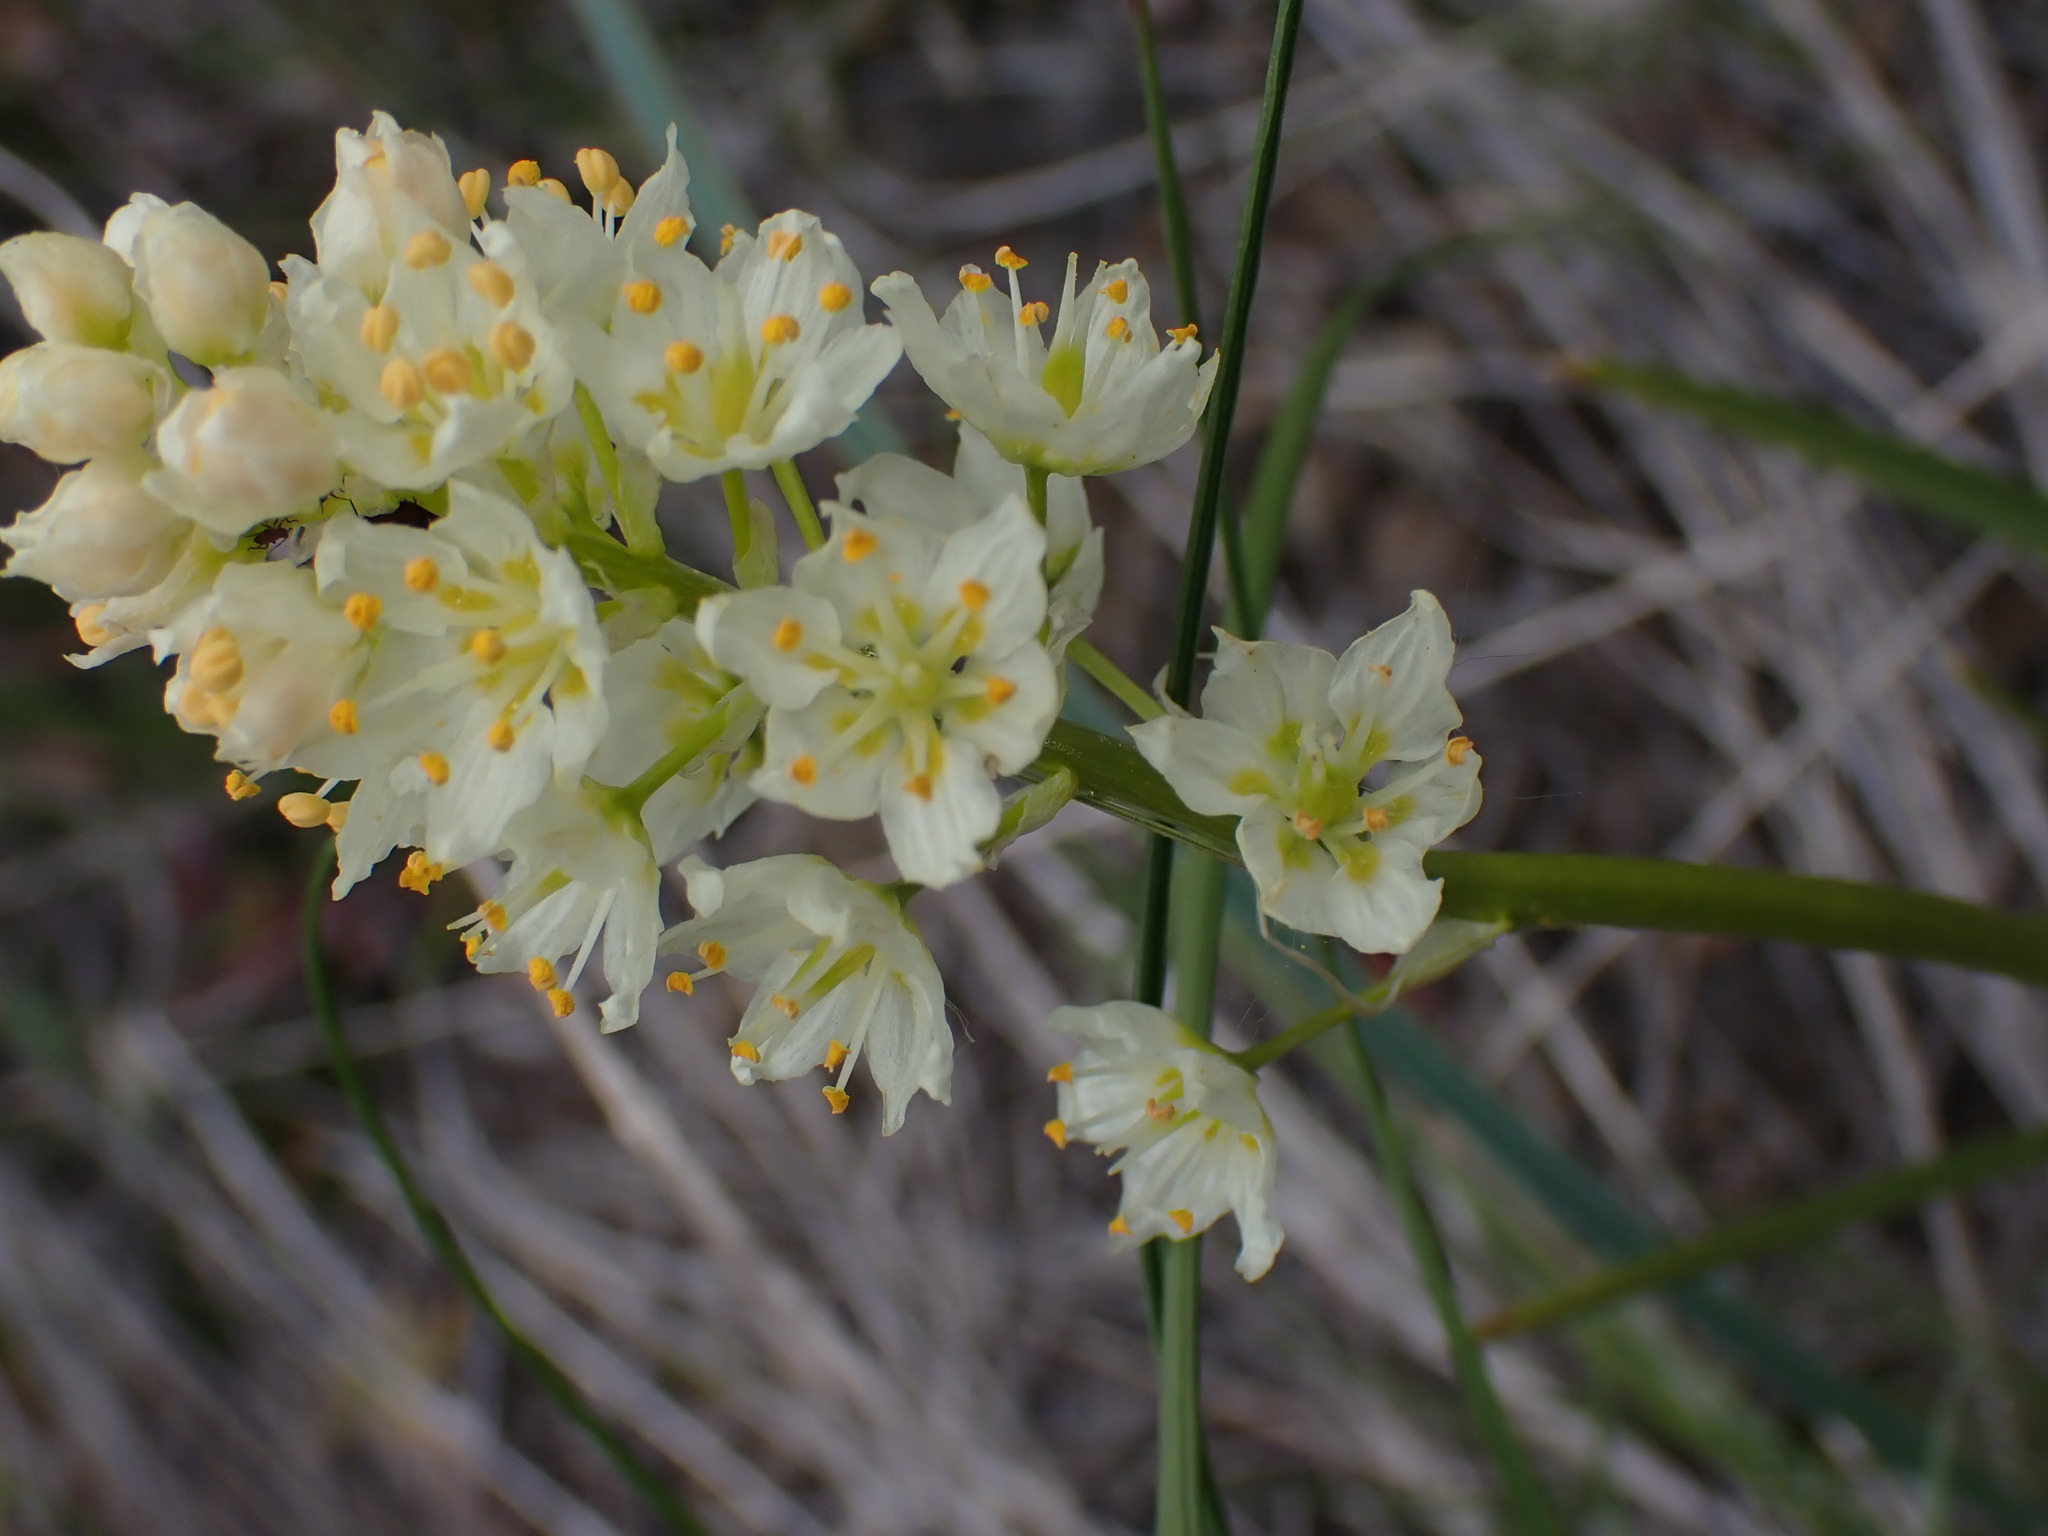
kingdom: Plantae
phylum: Tracheophyta
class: Liliopsida
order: Liliales
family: Melanthiaceae
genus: Toxicoscordion
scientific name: Toxicoscordion venenosum
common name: Meadow death camas
